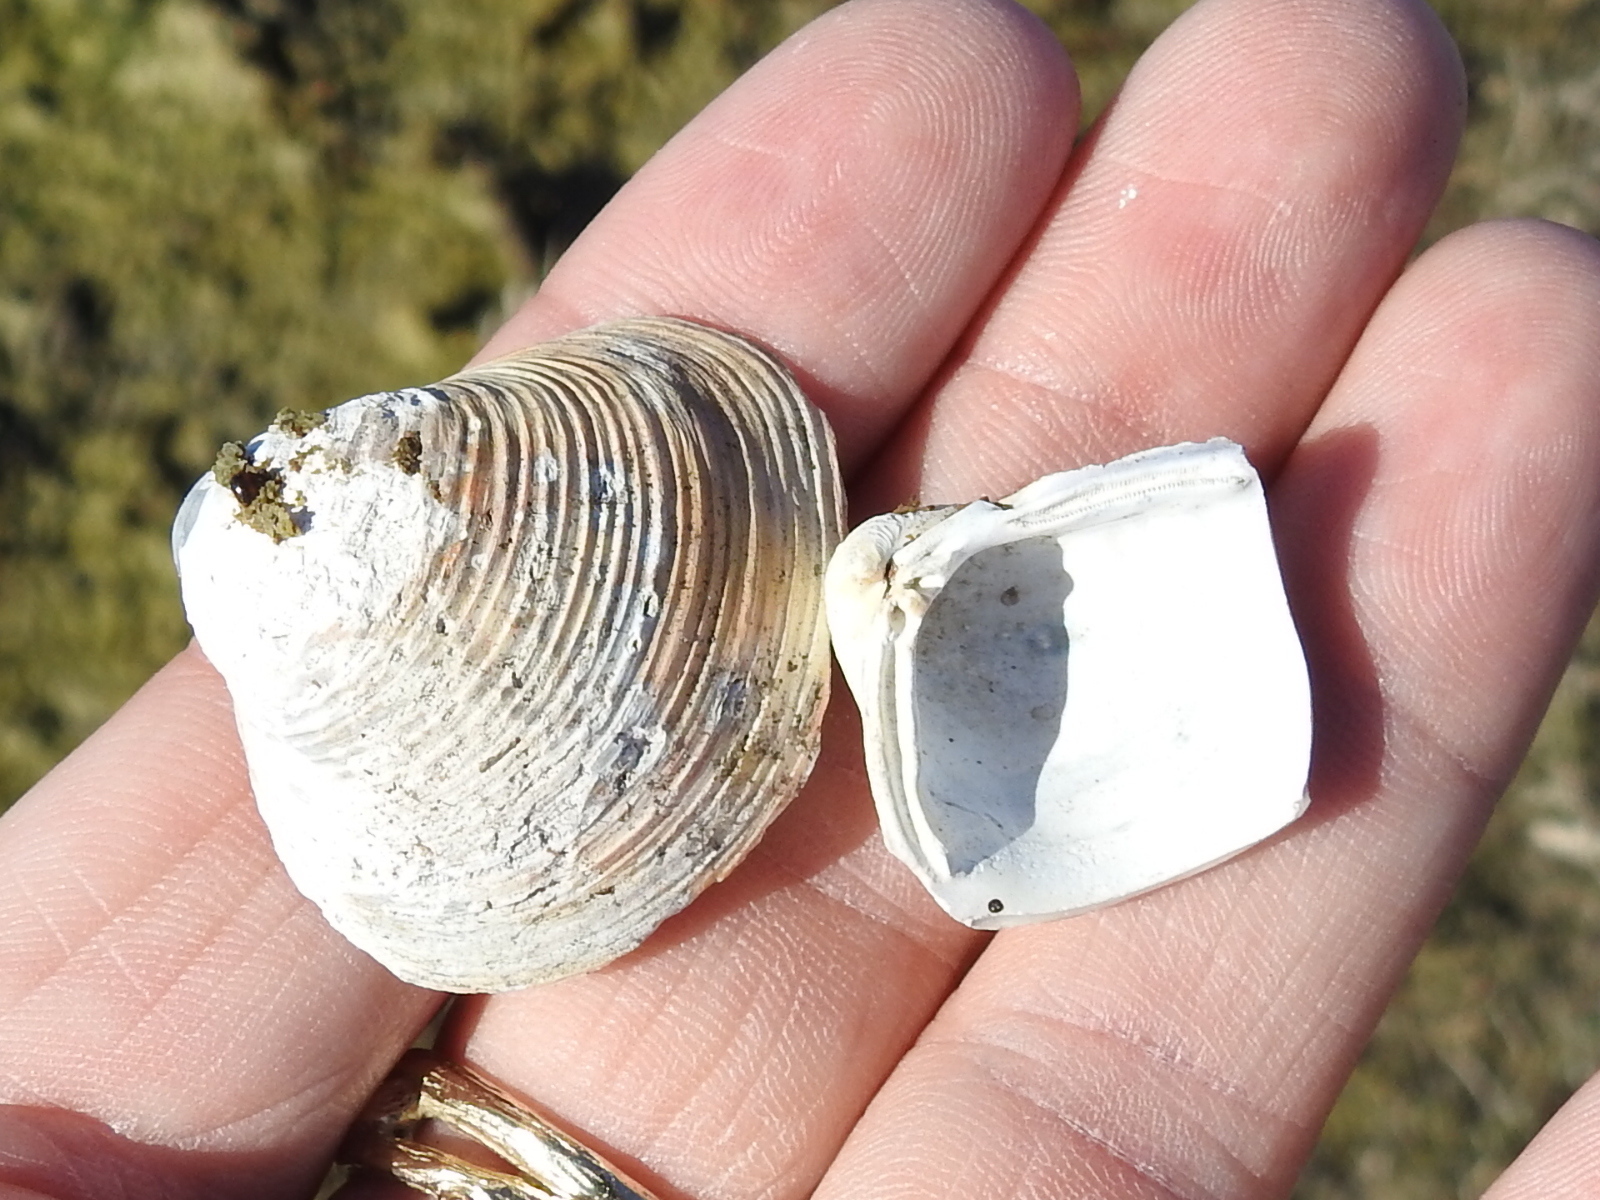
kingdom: Animalia
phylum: Mollusca
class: Bivalvia
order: Venerida
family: Cyrenidae
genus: Corbicula
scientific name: Corbicula fluminea
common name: Asian clam
